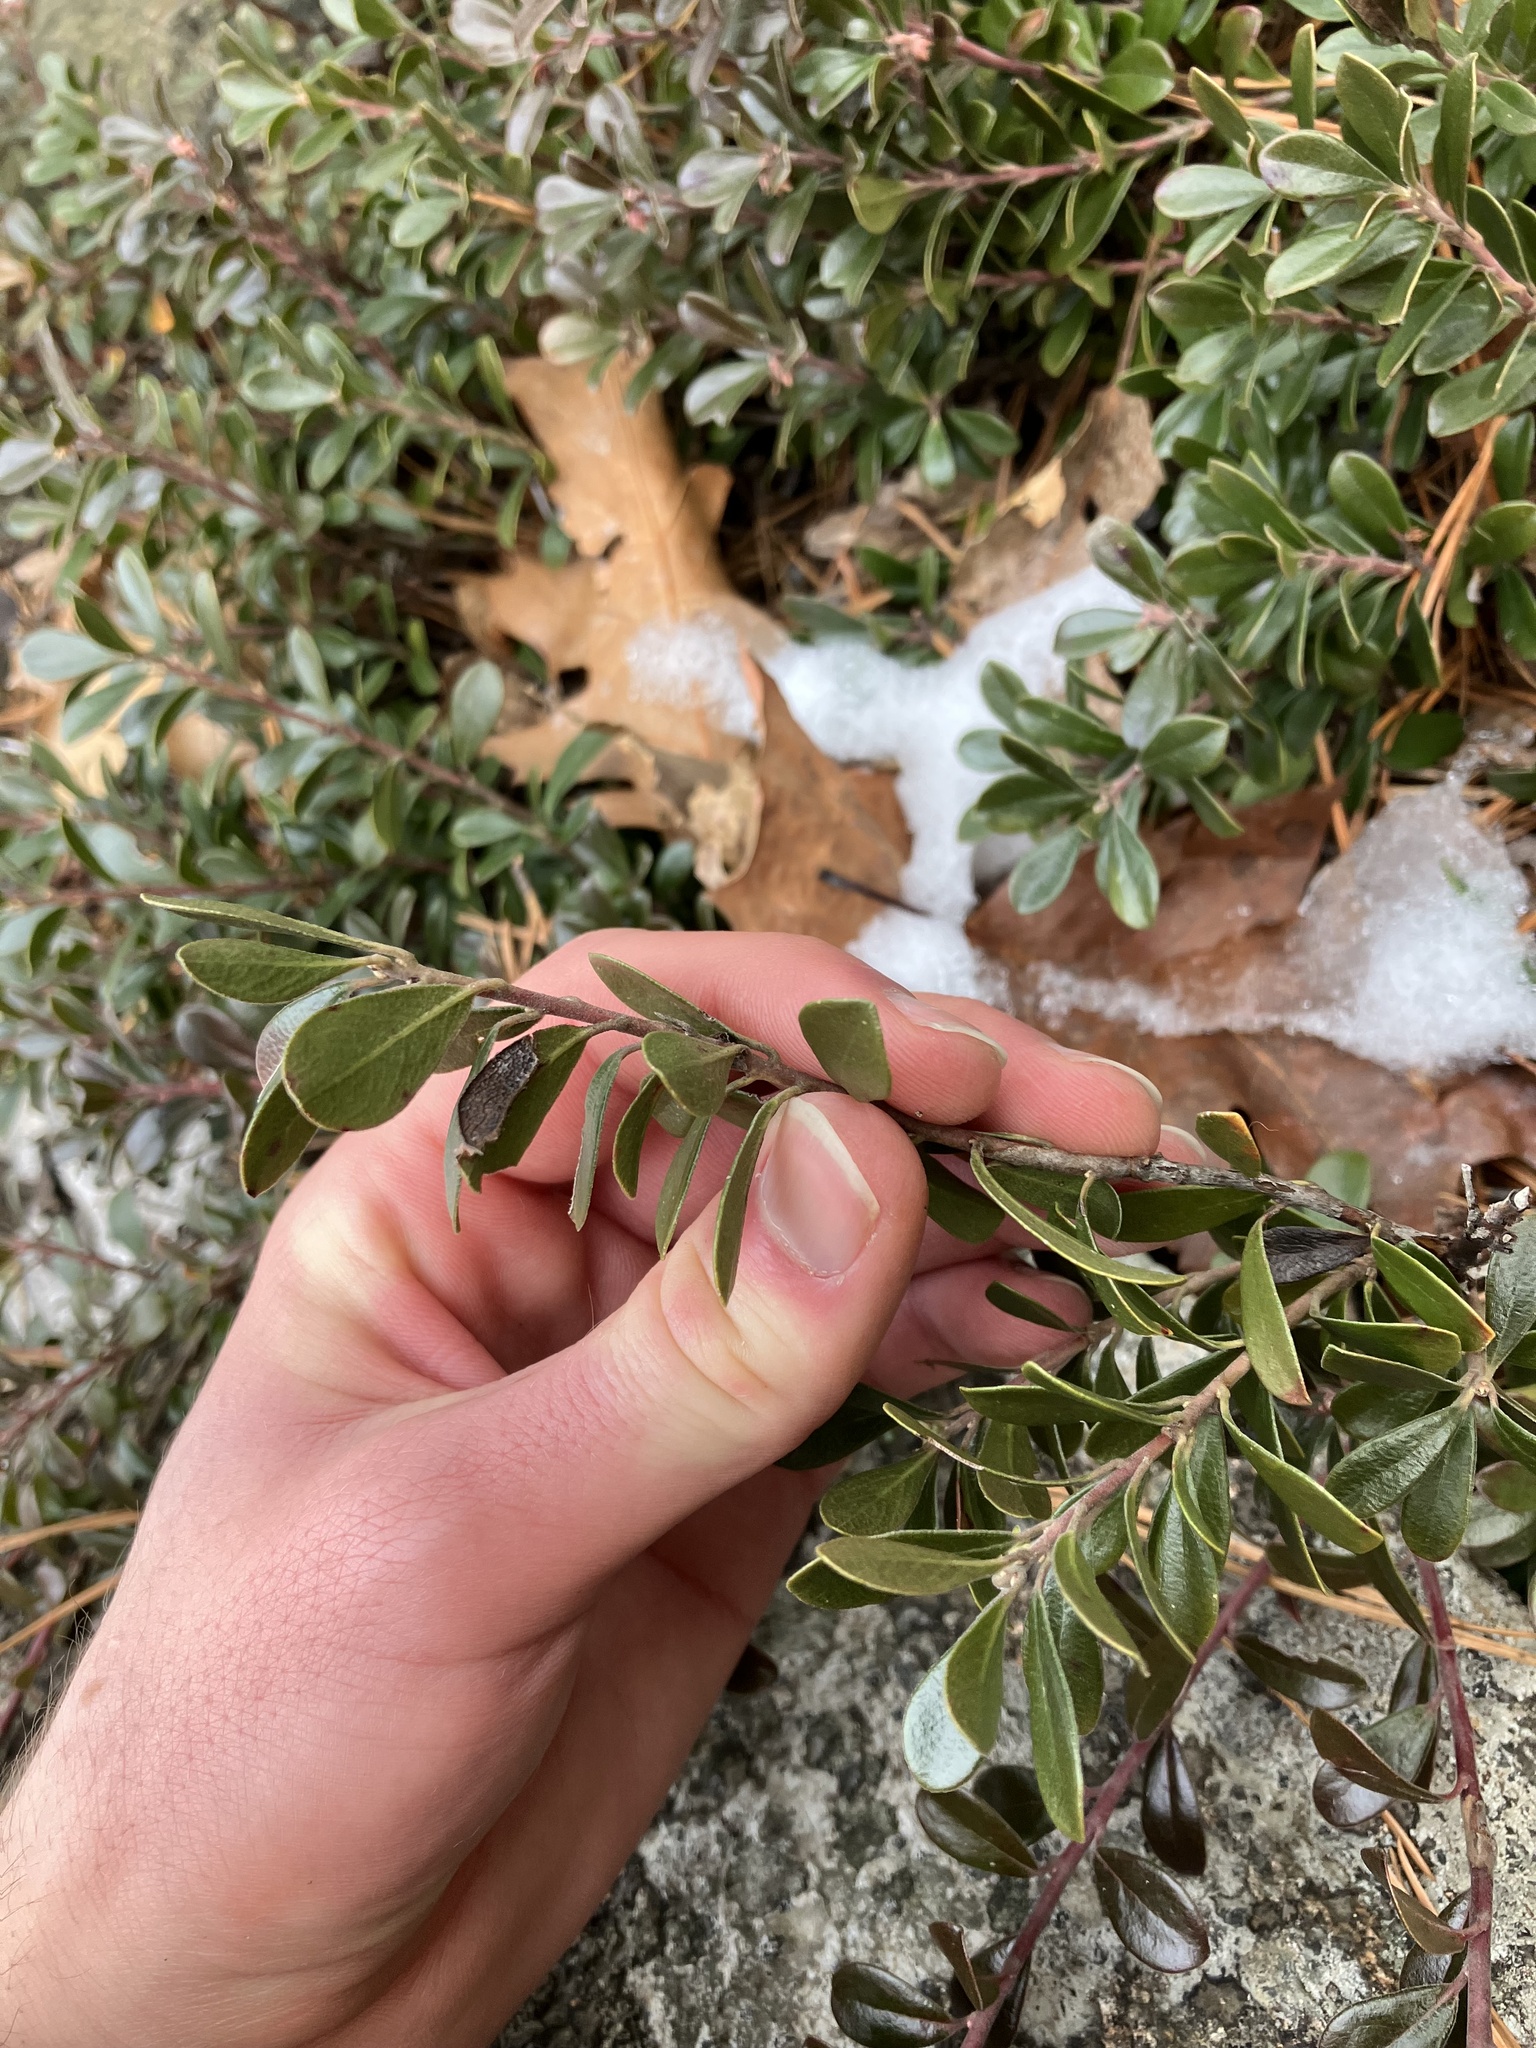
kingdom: Plantae
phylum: Tracheophyta
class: Magnoliopsida
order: Ericales
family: Ericaceae
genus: Arctostaphylos
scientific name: Arctostaphylos uva-ursi
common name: Bearberry
